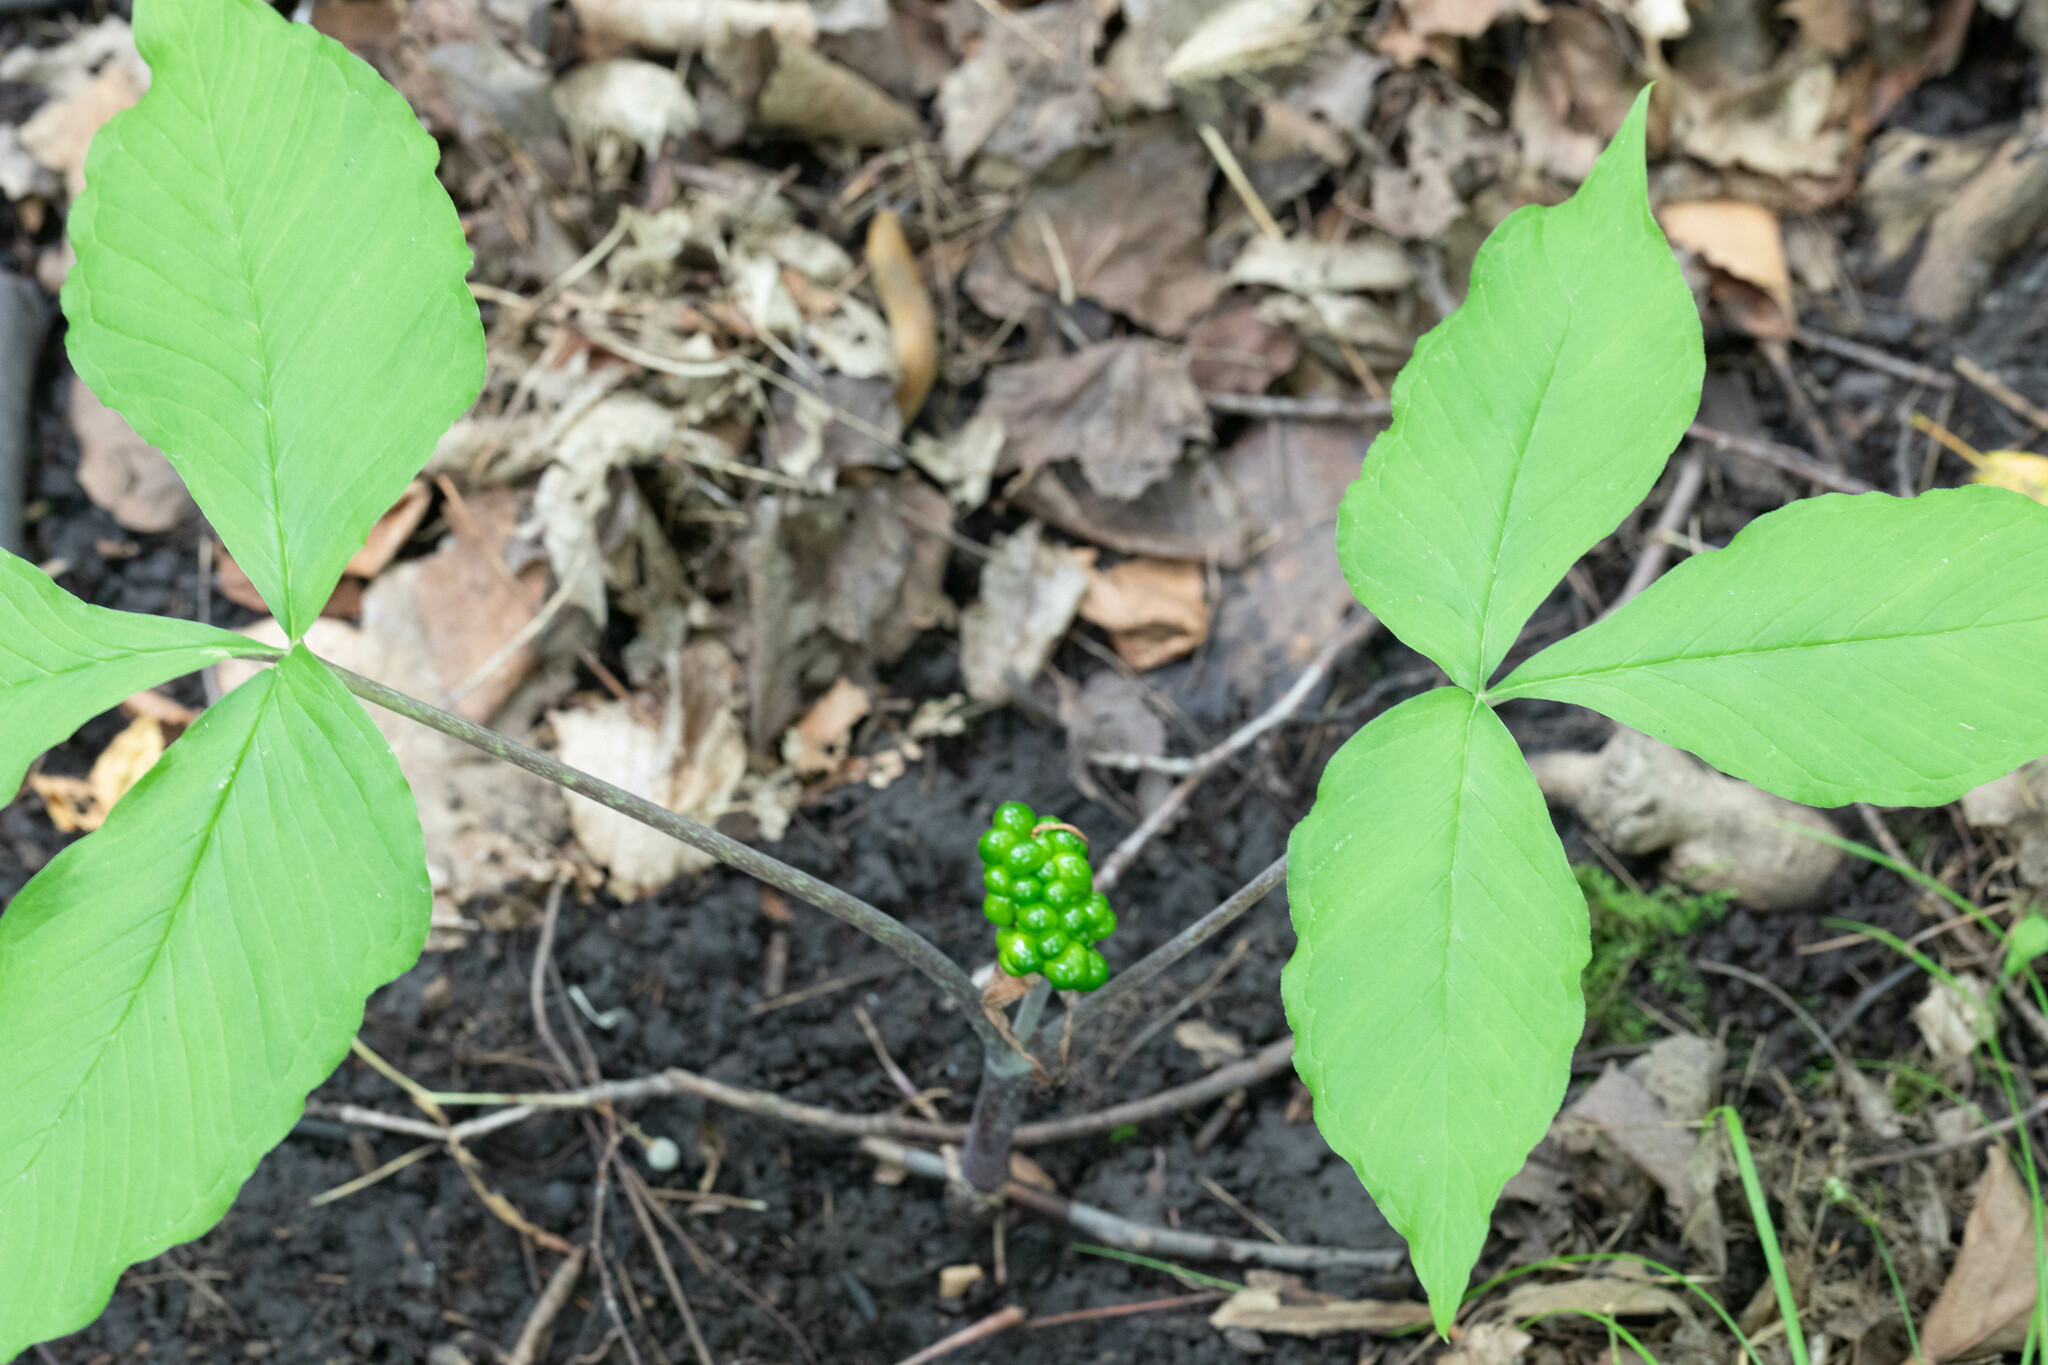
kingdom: Plantae
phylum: Tracheophyta
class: Liliopsida
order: Alismatales
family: Araceae
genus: Arisaema
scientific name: Arisaema triphyllum
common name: Jack-in-the-pulpit
